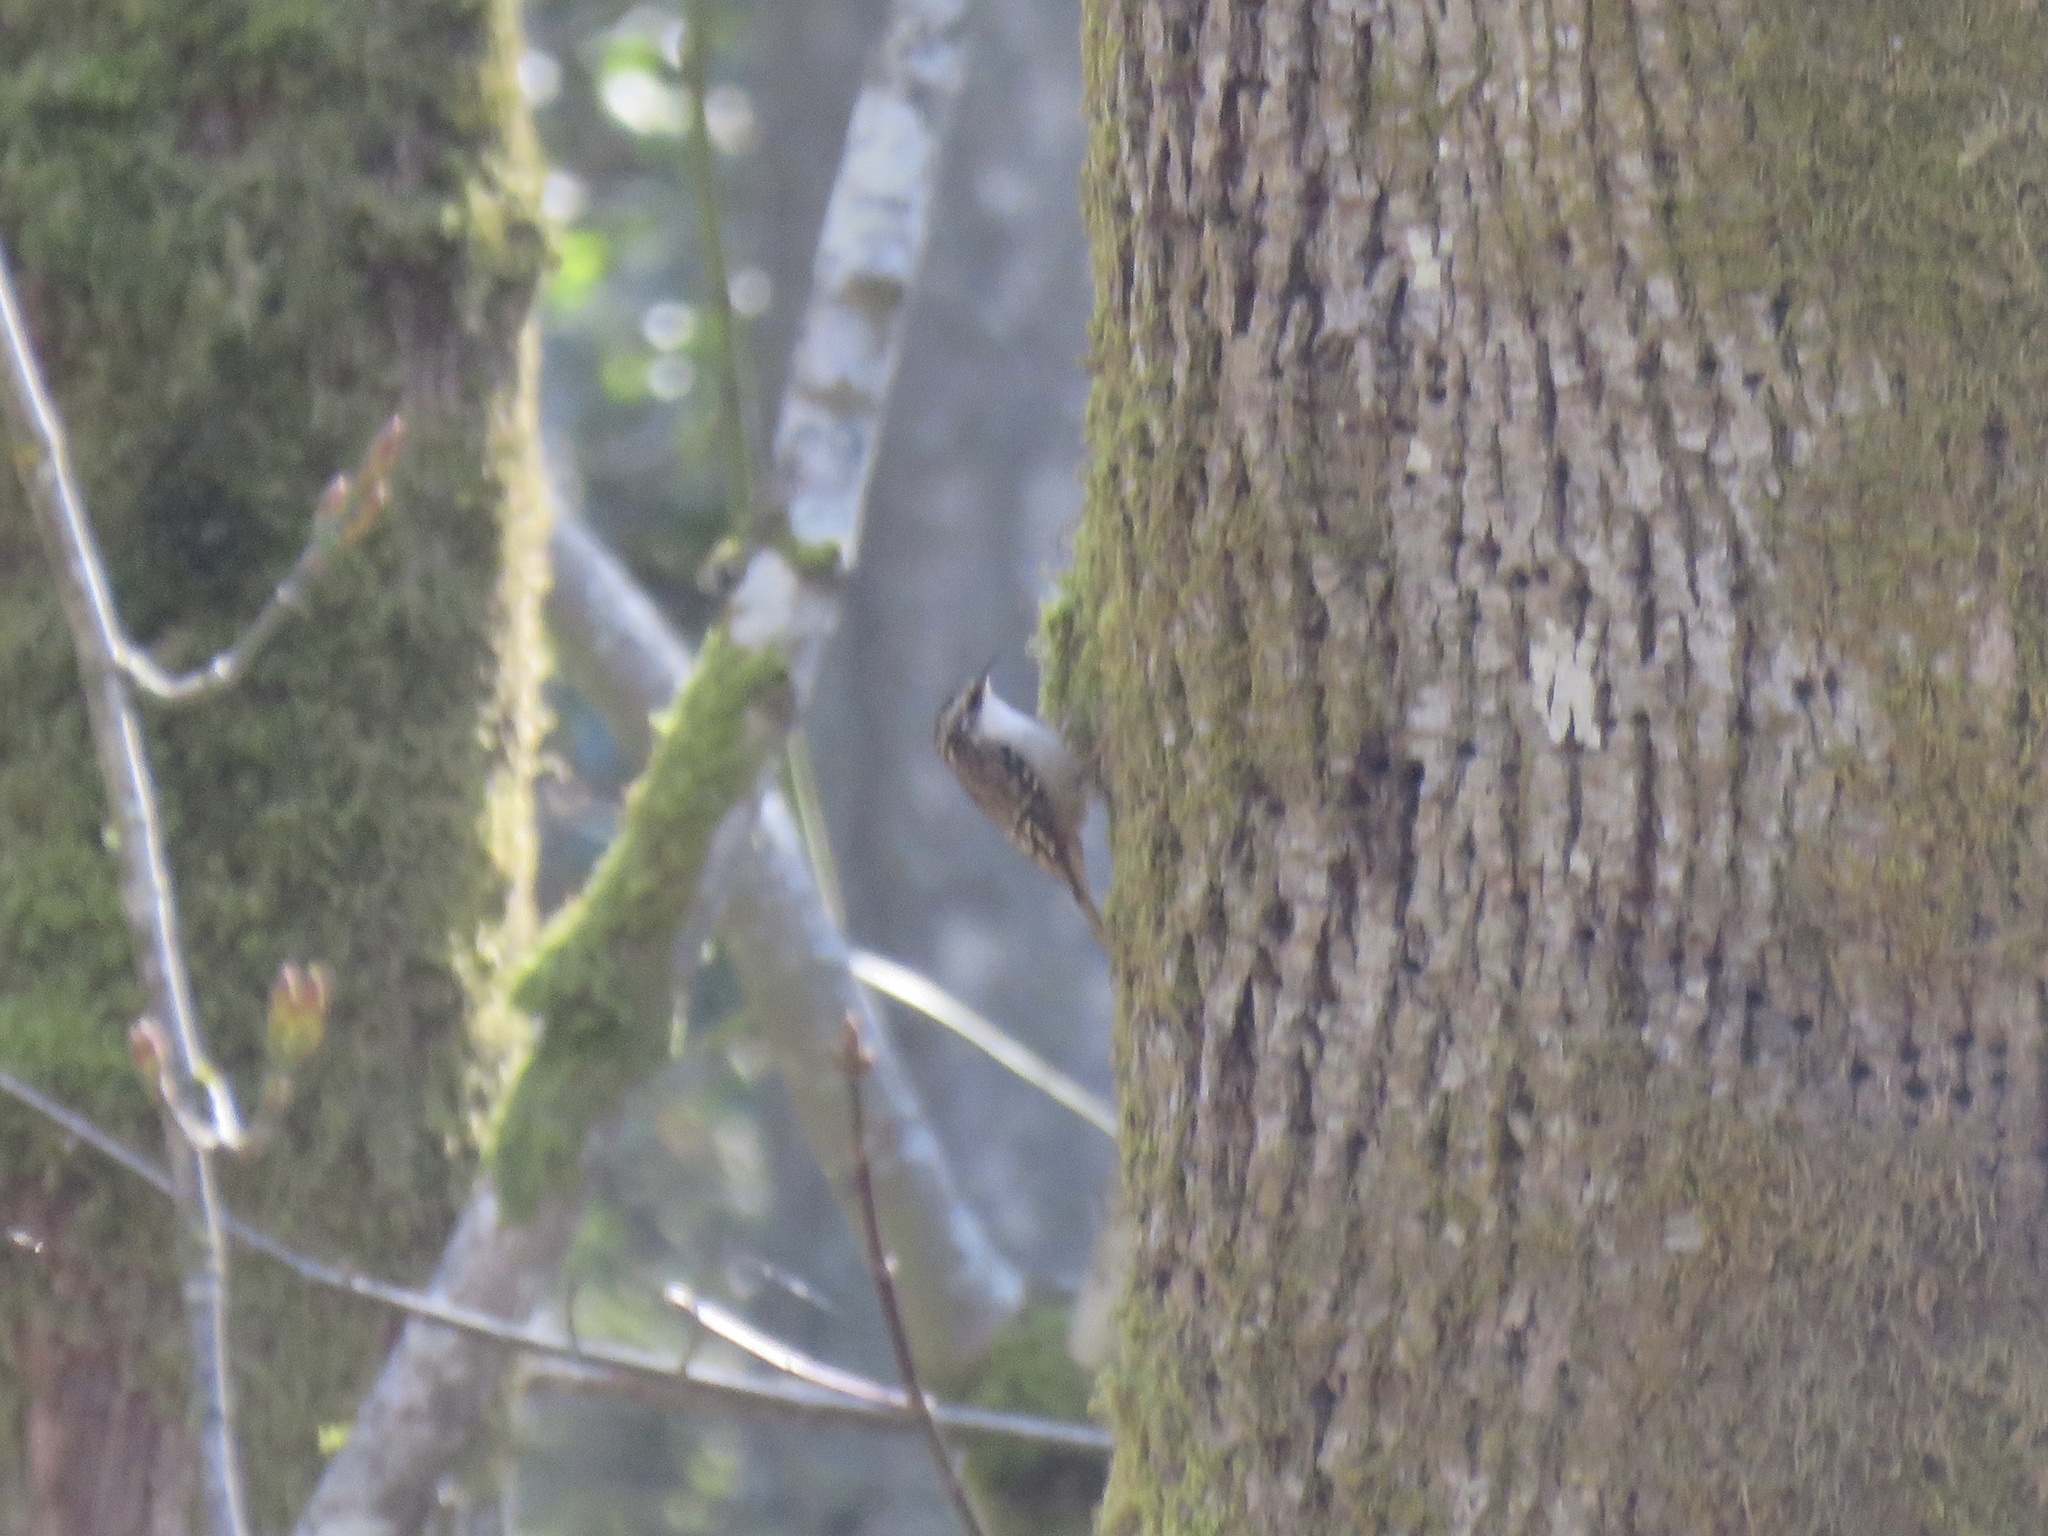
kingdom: Animalia
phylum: Chordata
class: Aves
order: Passeriformes
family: Certhiidae
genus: Certhia
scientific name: Certhia americana
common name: Brown creeper
